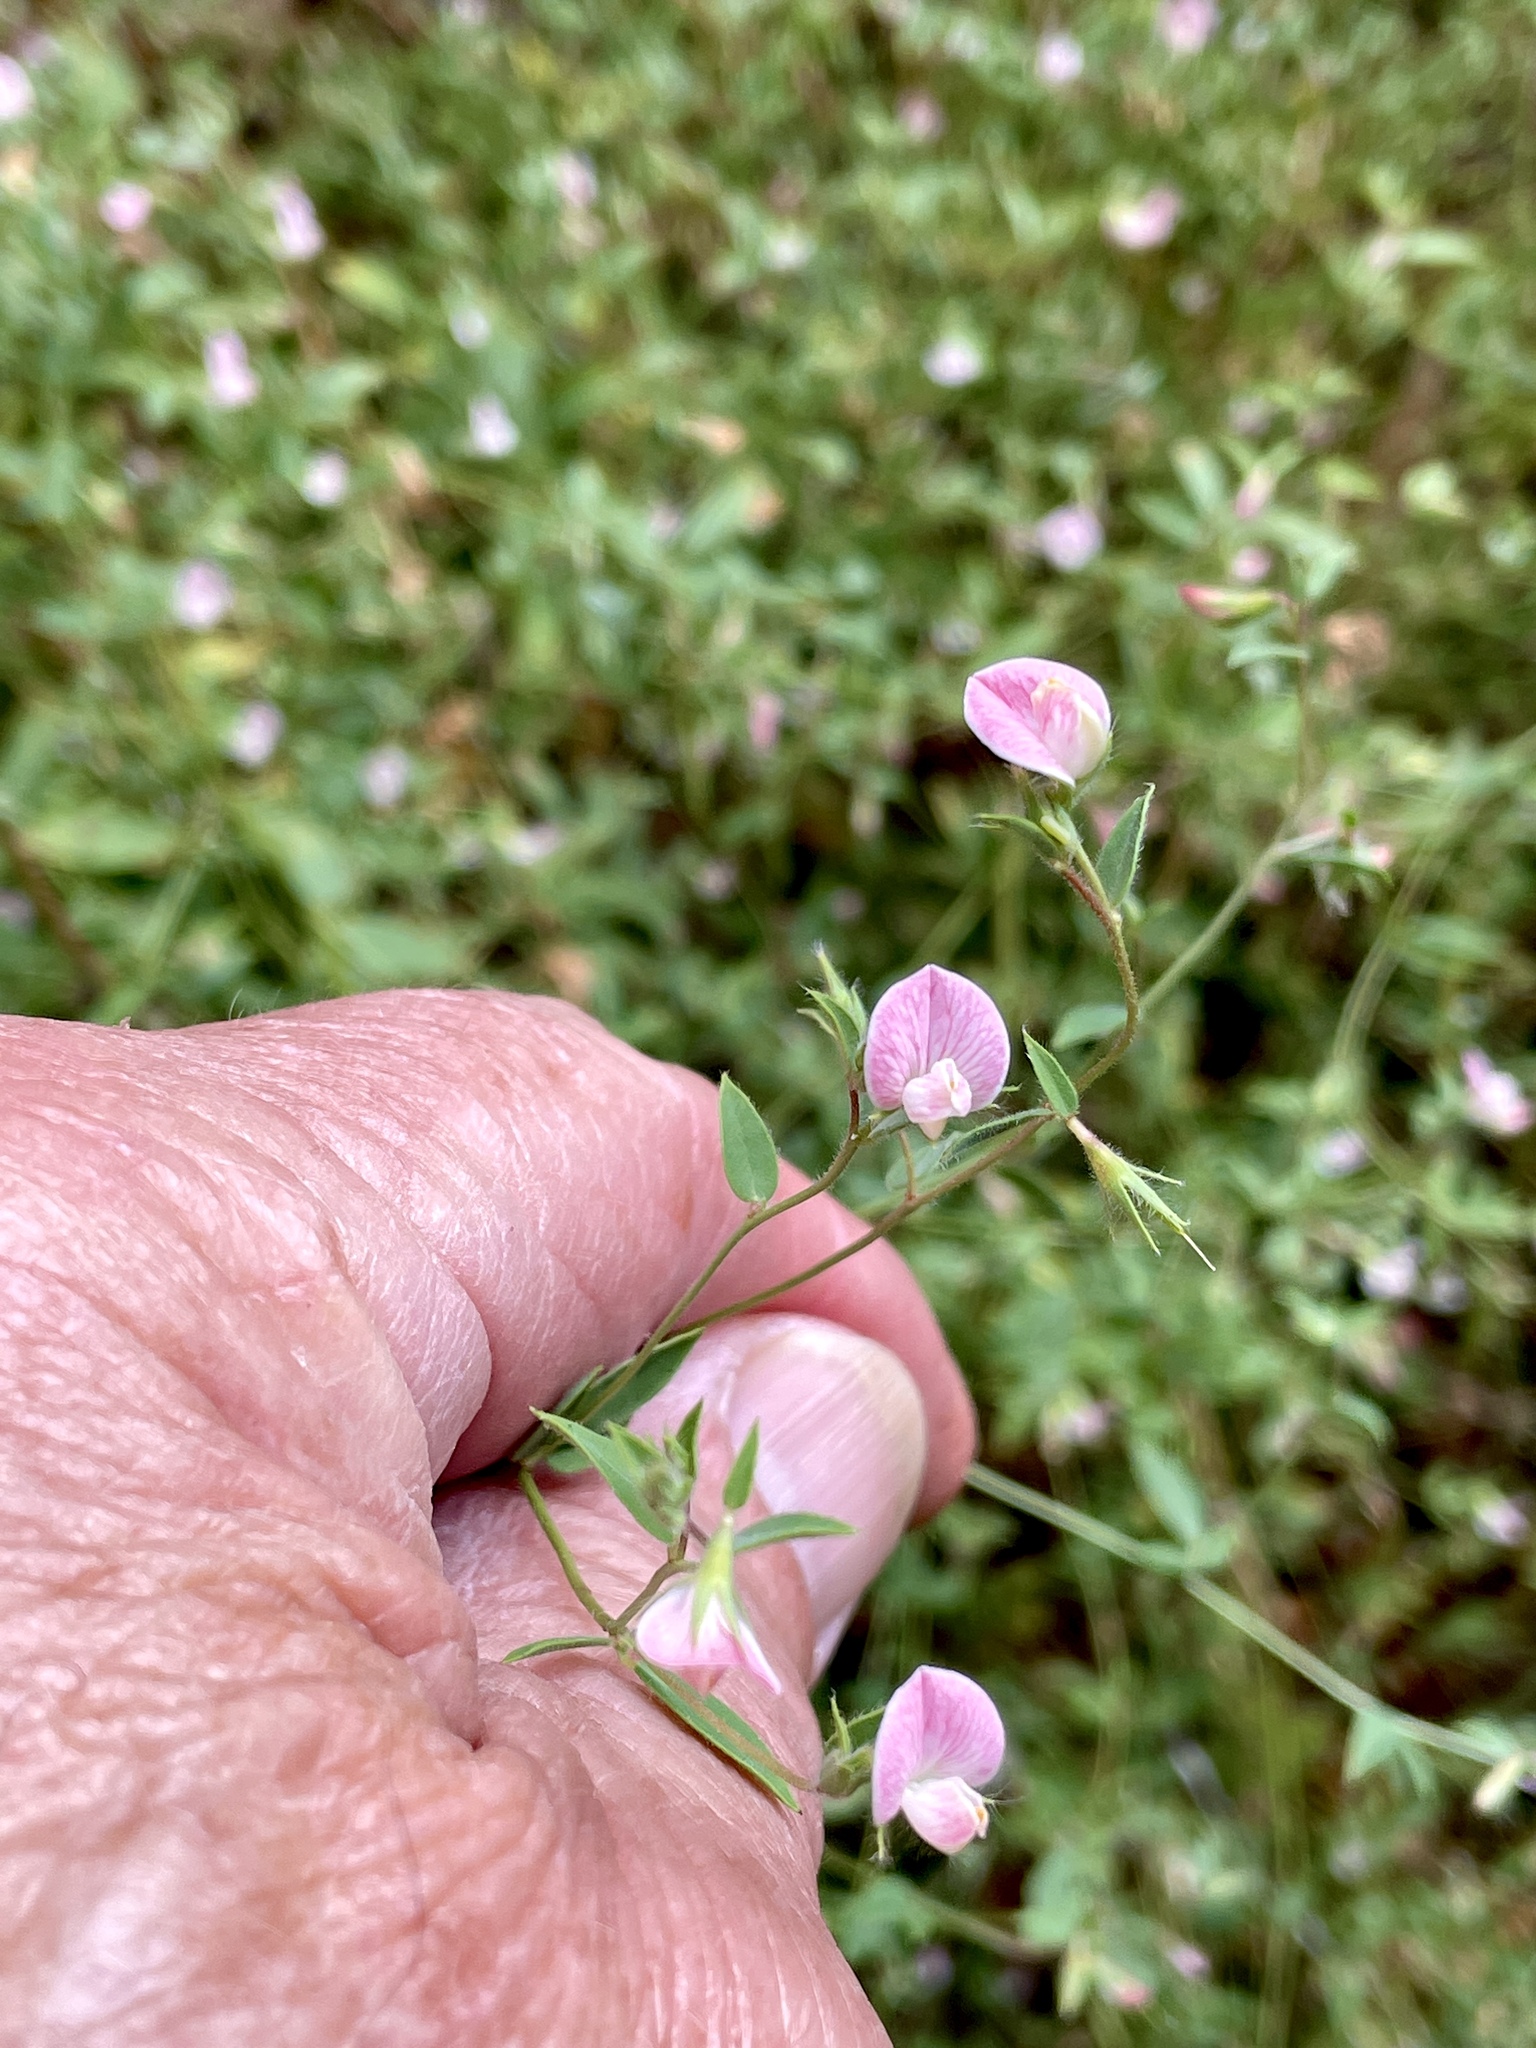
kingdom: Plantae
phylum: Tracheophyta
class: Magnoliopsida
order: Fabales
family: Fabaceae
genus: Acmispon
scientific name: Acmispon americanus
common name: American bird's-foot trefoil
